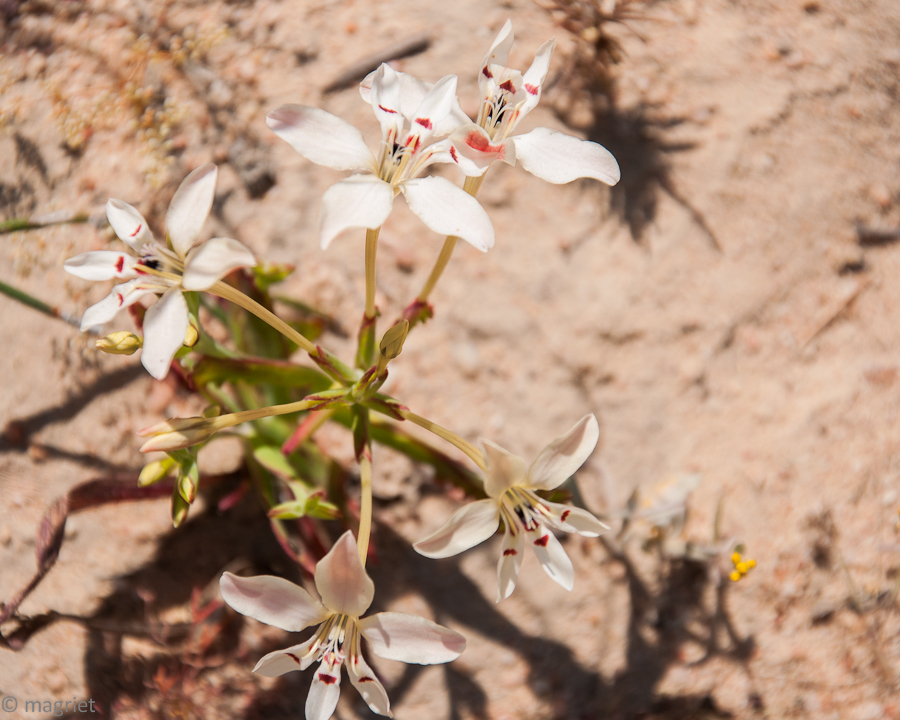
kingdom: Plantae
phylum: Tracheophyta
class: Liliopsida
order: Asparagales
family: Iridaceae
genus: Lapeirousia
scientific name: Lapeirousia fabricii
